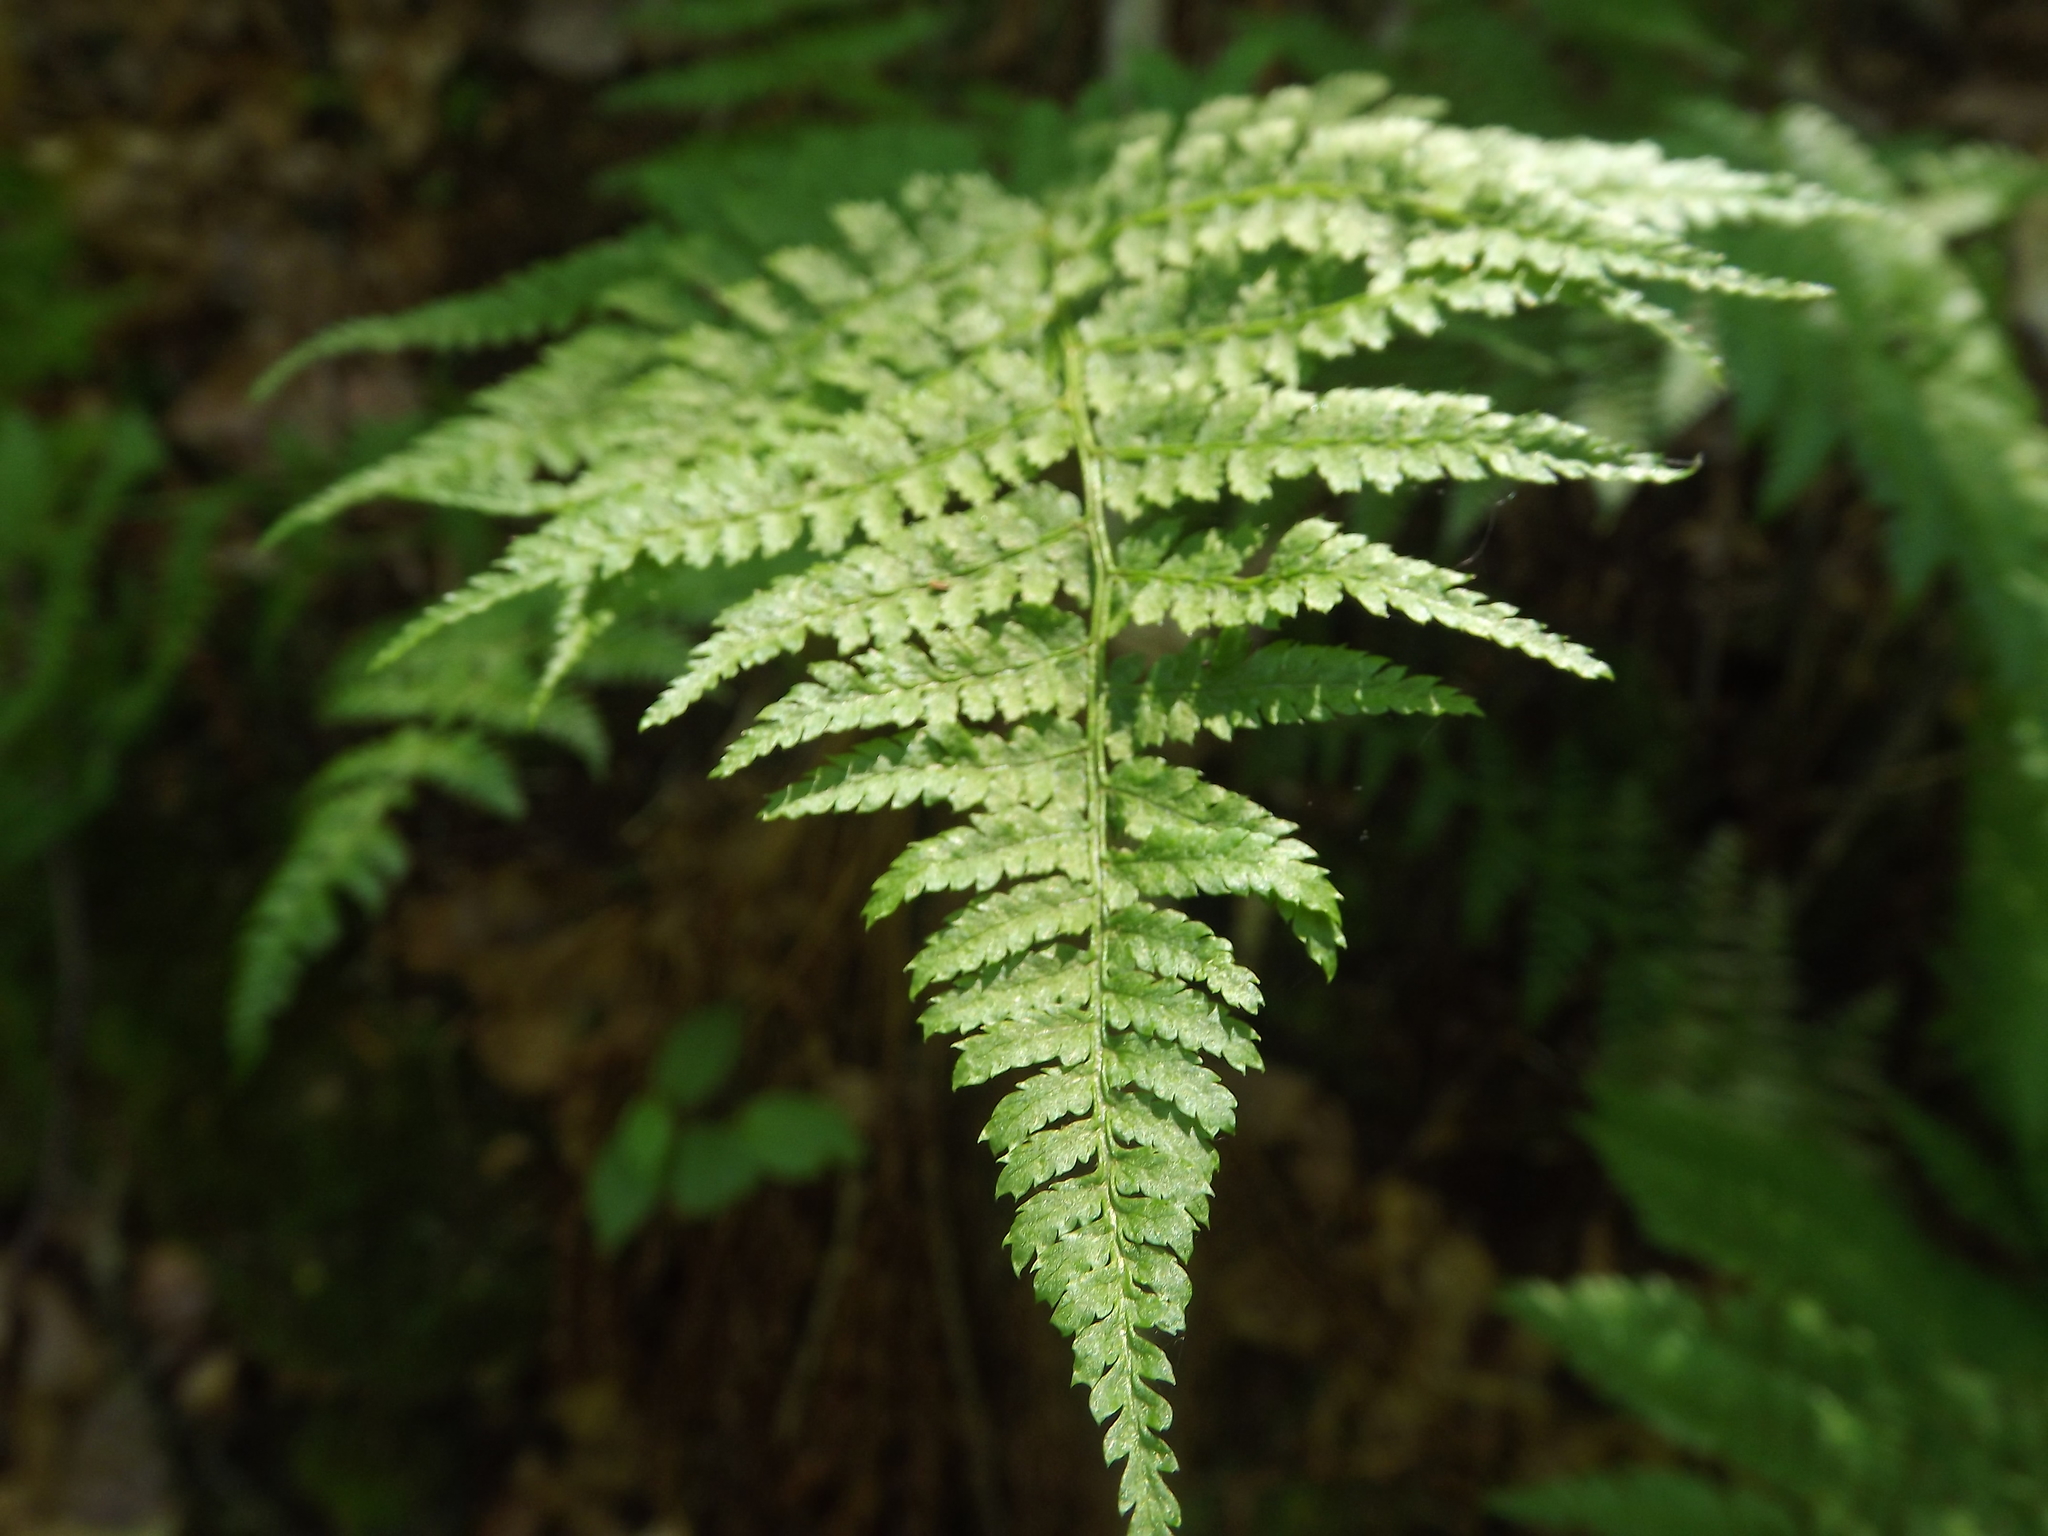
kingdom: Plantae
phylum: Tracheophyta
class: Polypodiopsida
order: Polypodiales
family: Dryopteridaceae
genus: Dryopteris
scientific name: Dryopteris intermedia
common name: Evergreen wood fern
